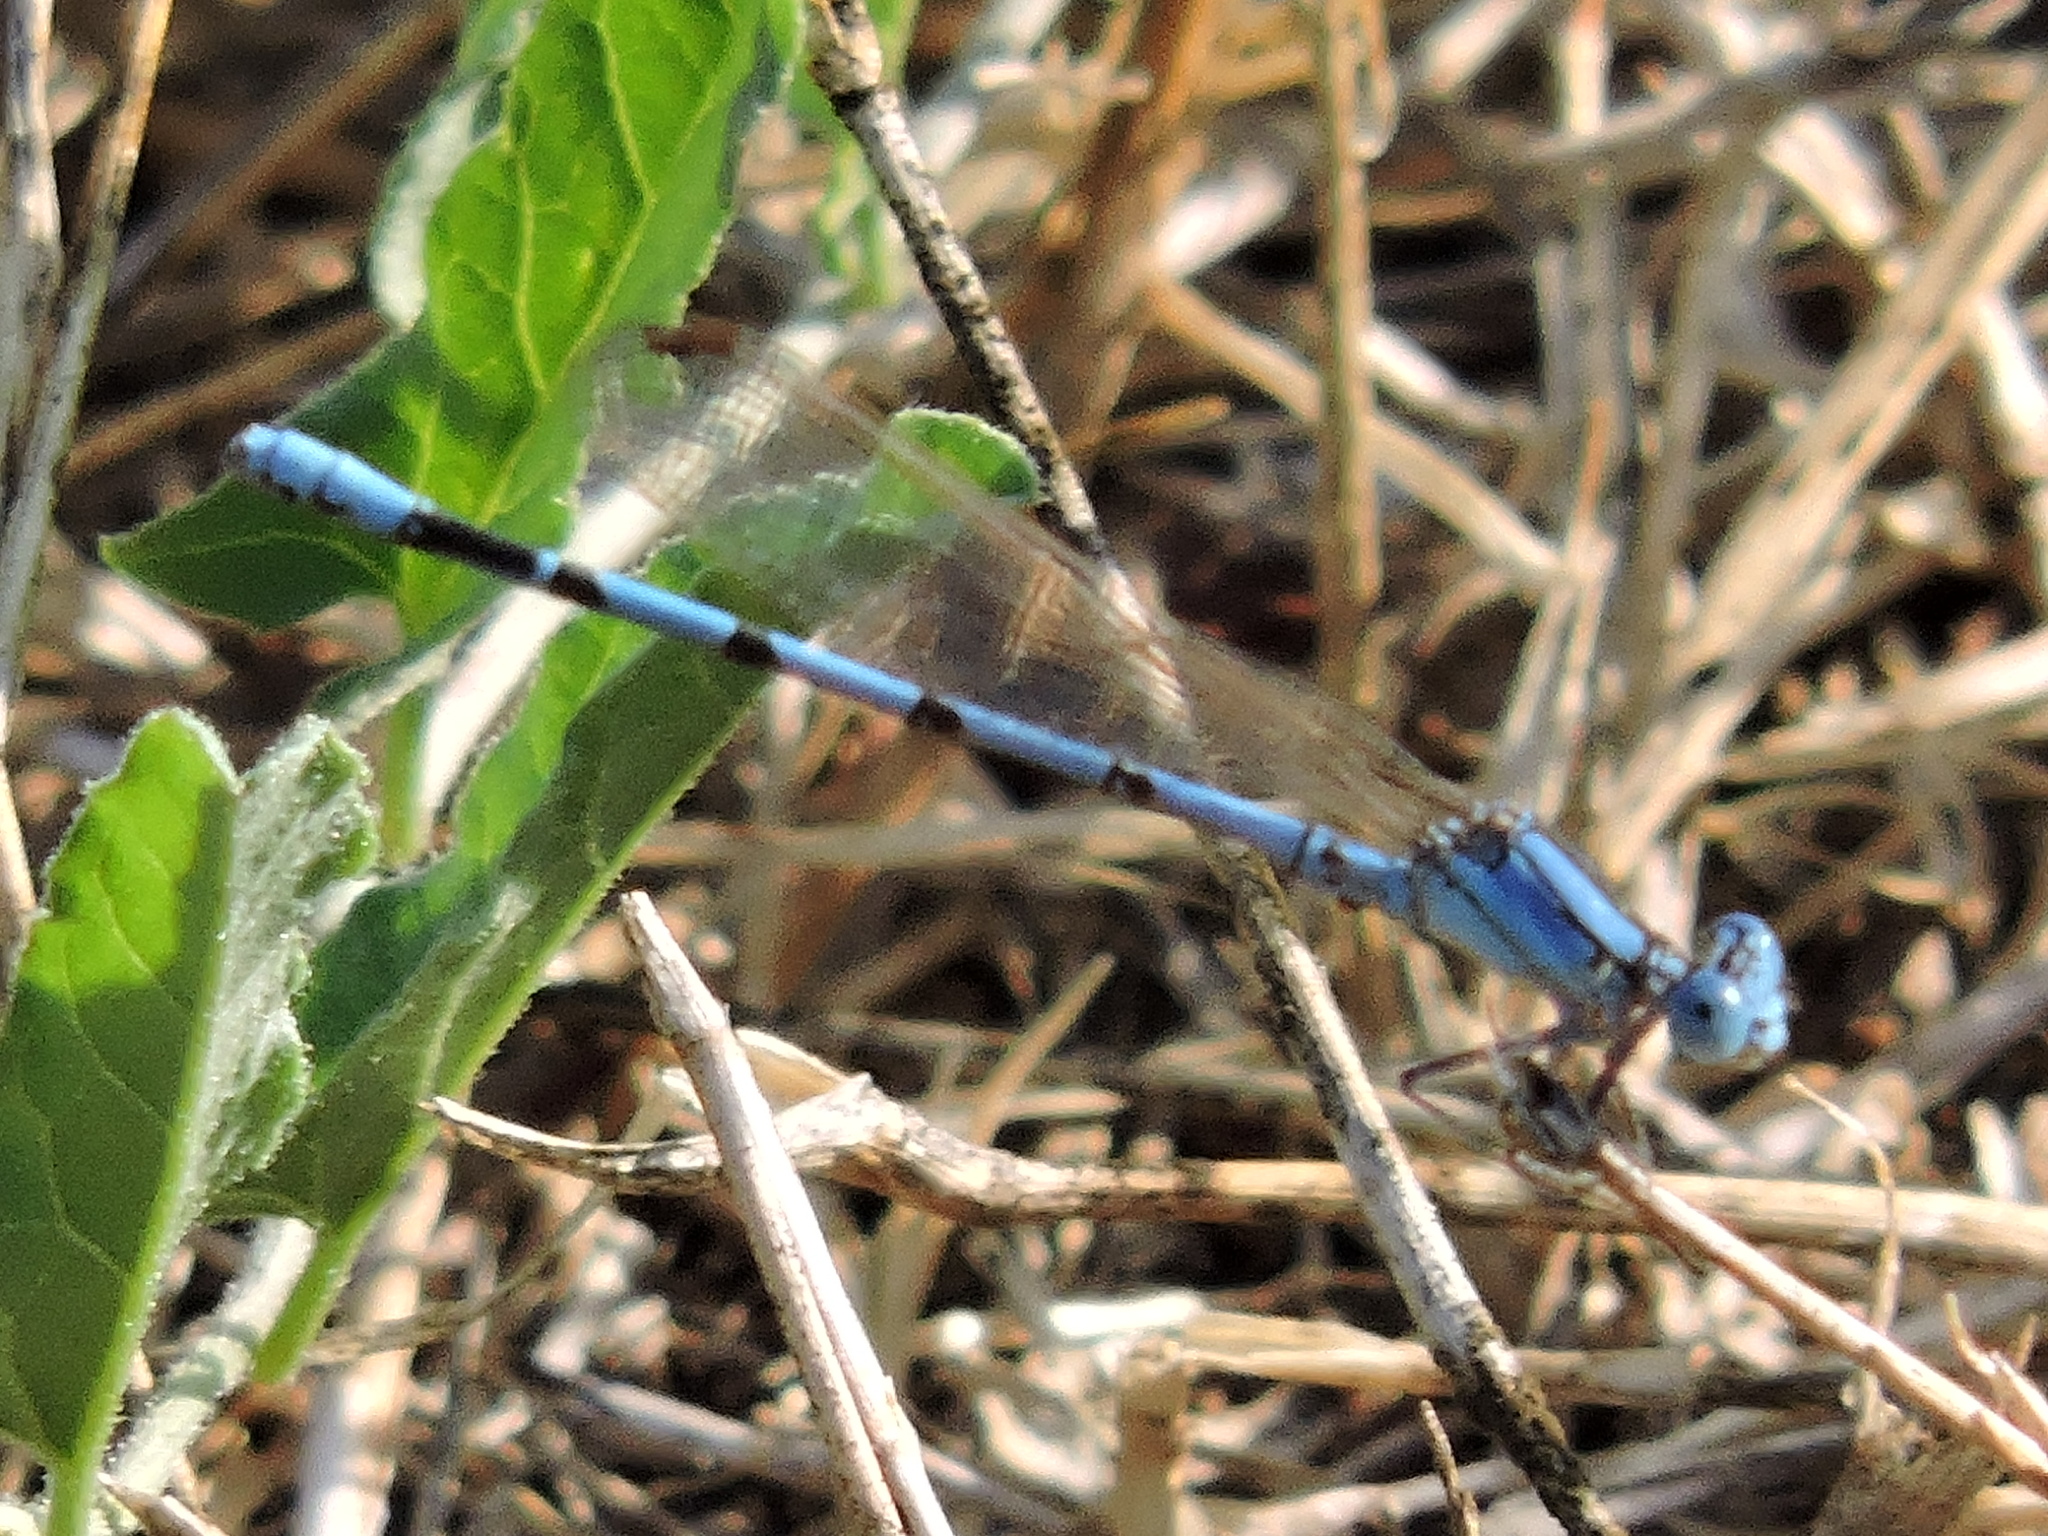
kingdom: Animalia
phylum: Arthropoda
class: Insecta
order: Odonata
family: Coenagrionidae
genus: Argia
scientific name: Argia nahuana
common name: Aztec dancer
